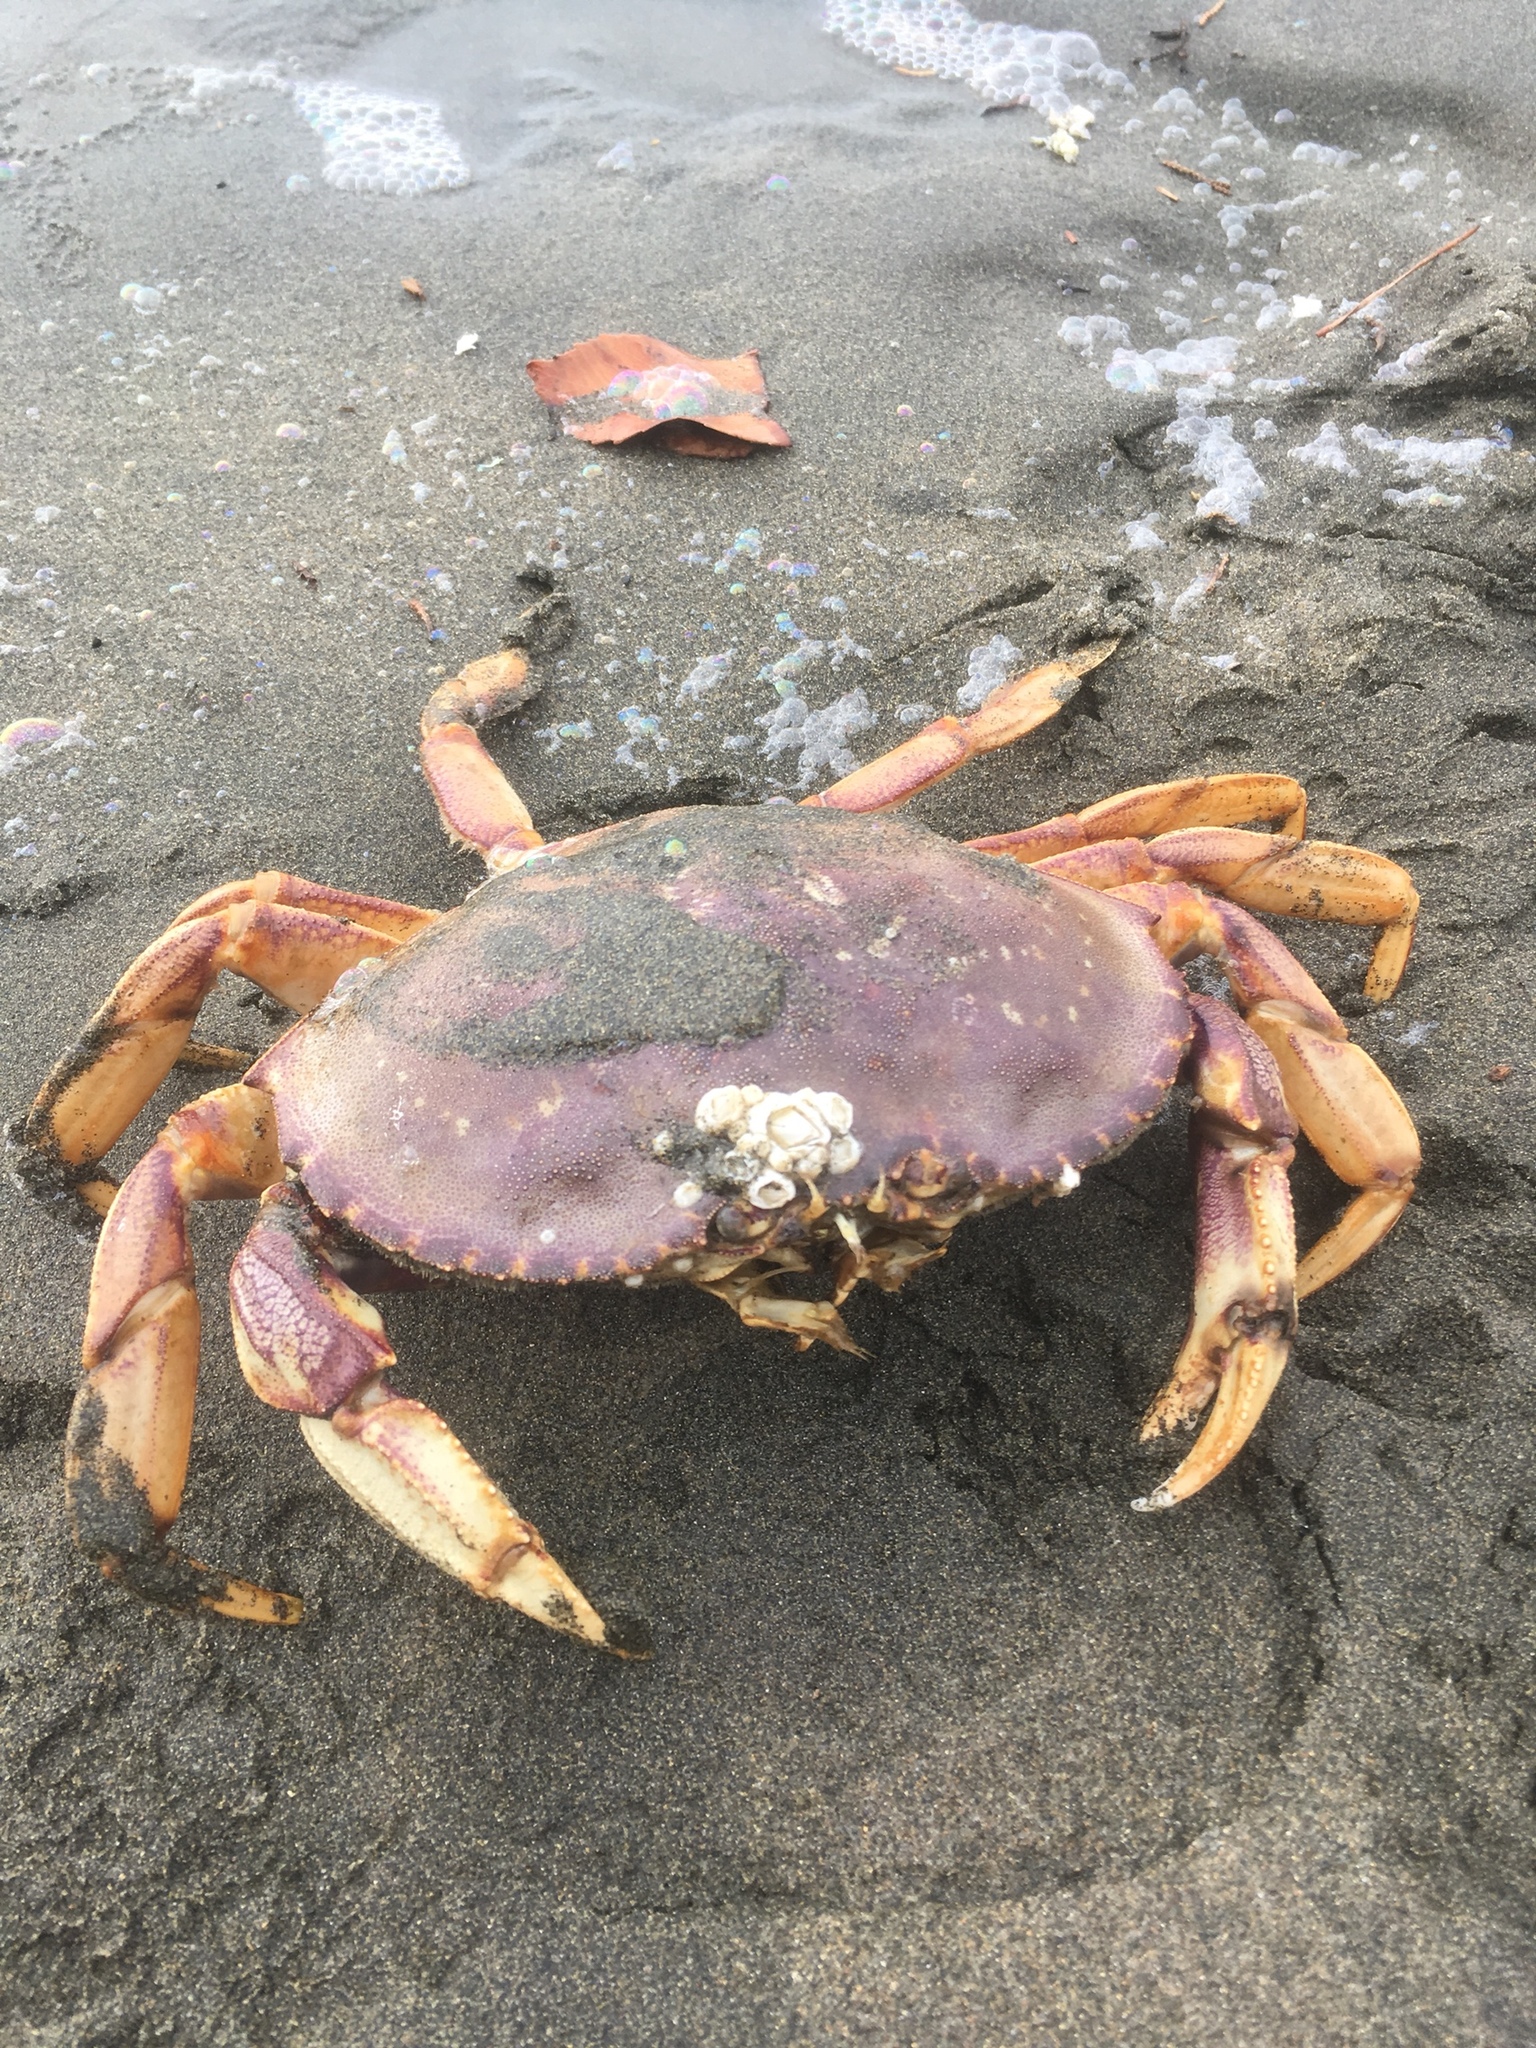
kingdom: Animalia
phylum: Arthropoda
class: Malacostraca
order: Decapoda
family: Cancridae
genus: Metacarcinus
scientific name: Metacarcinus magister
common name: Californian crab
